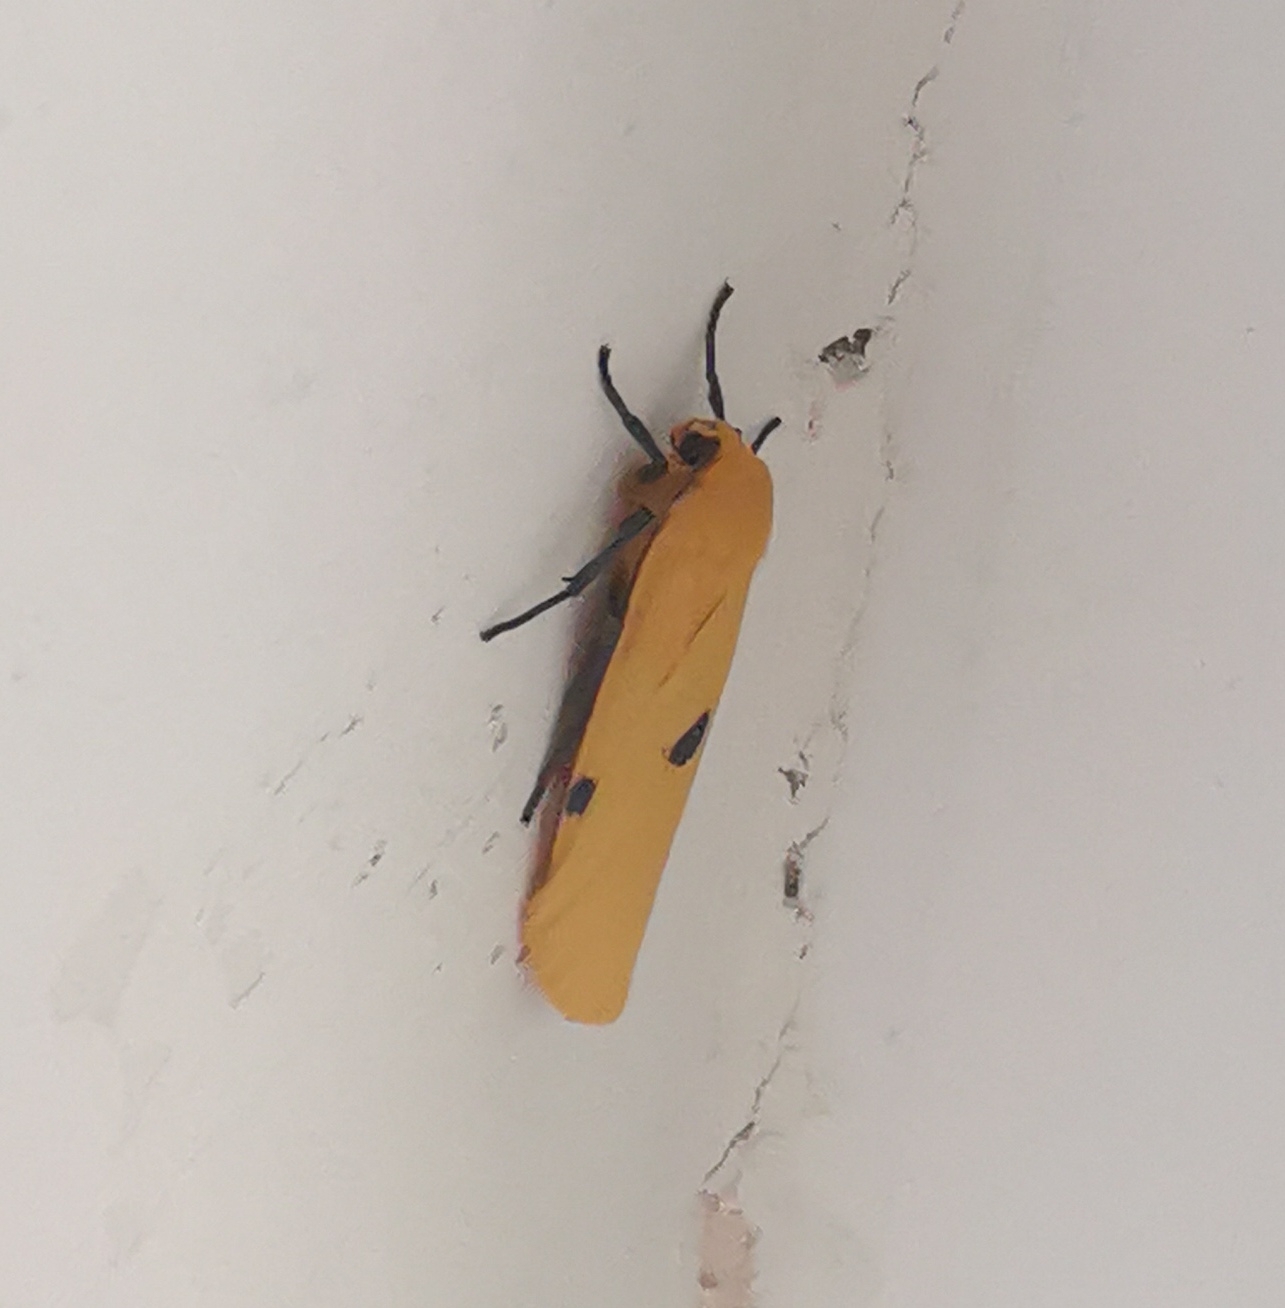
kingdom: Animalia
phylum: Arthropoda
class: Insecta
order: Lepidoptera
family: Erebidae
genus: Lithosia
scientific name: Lithosia quadra
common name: Four-spotted footman
